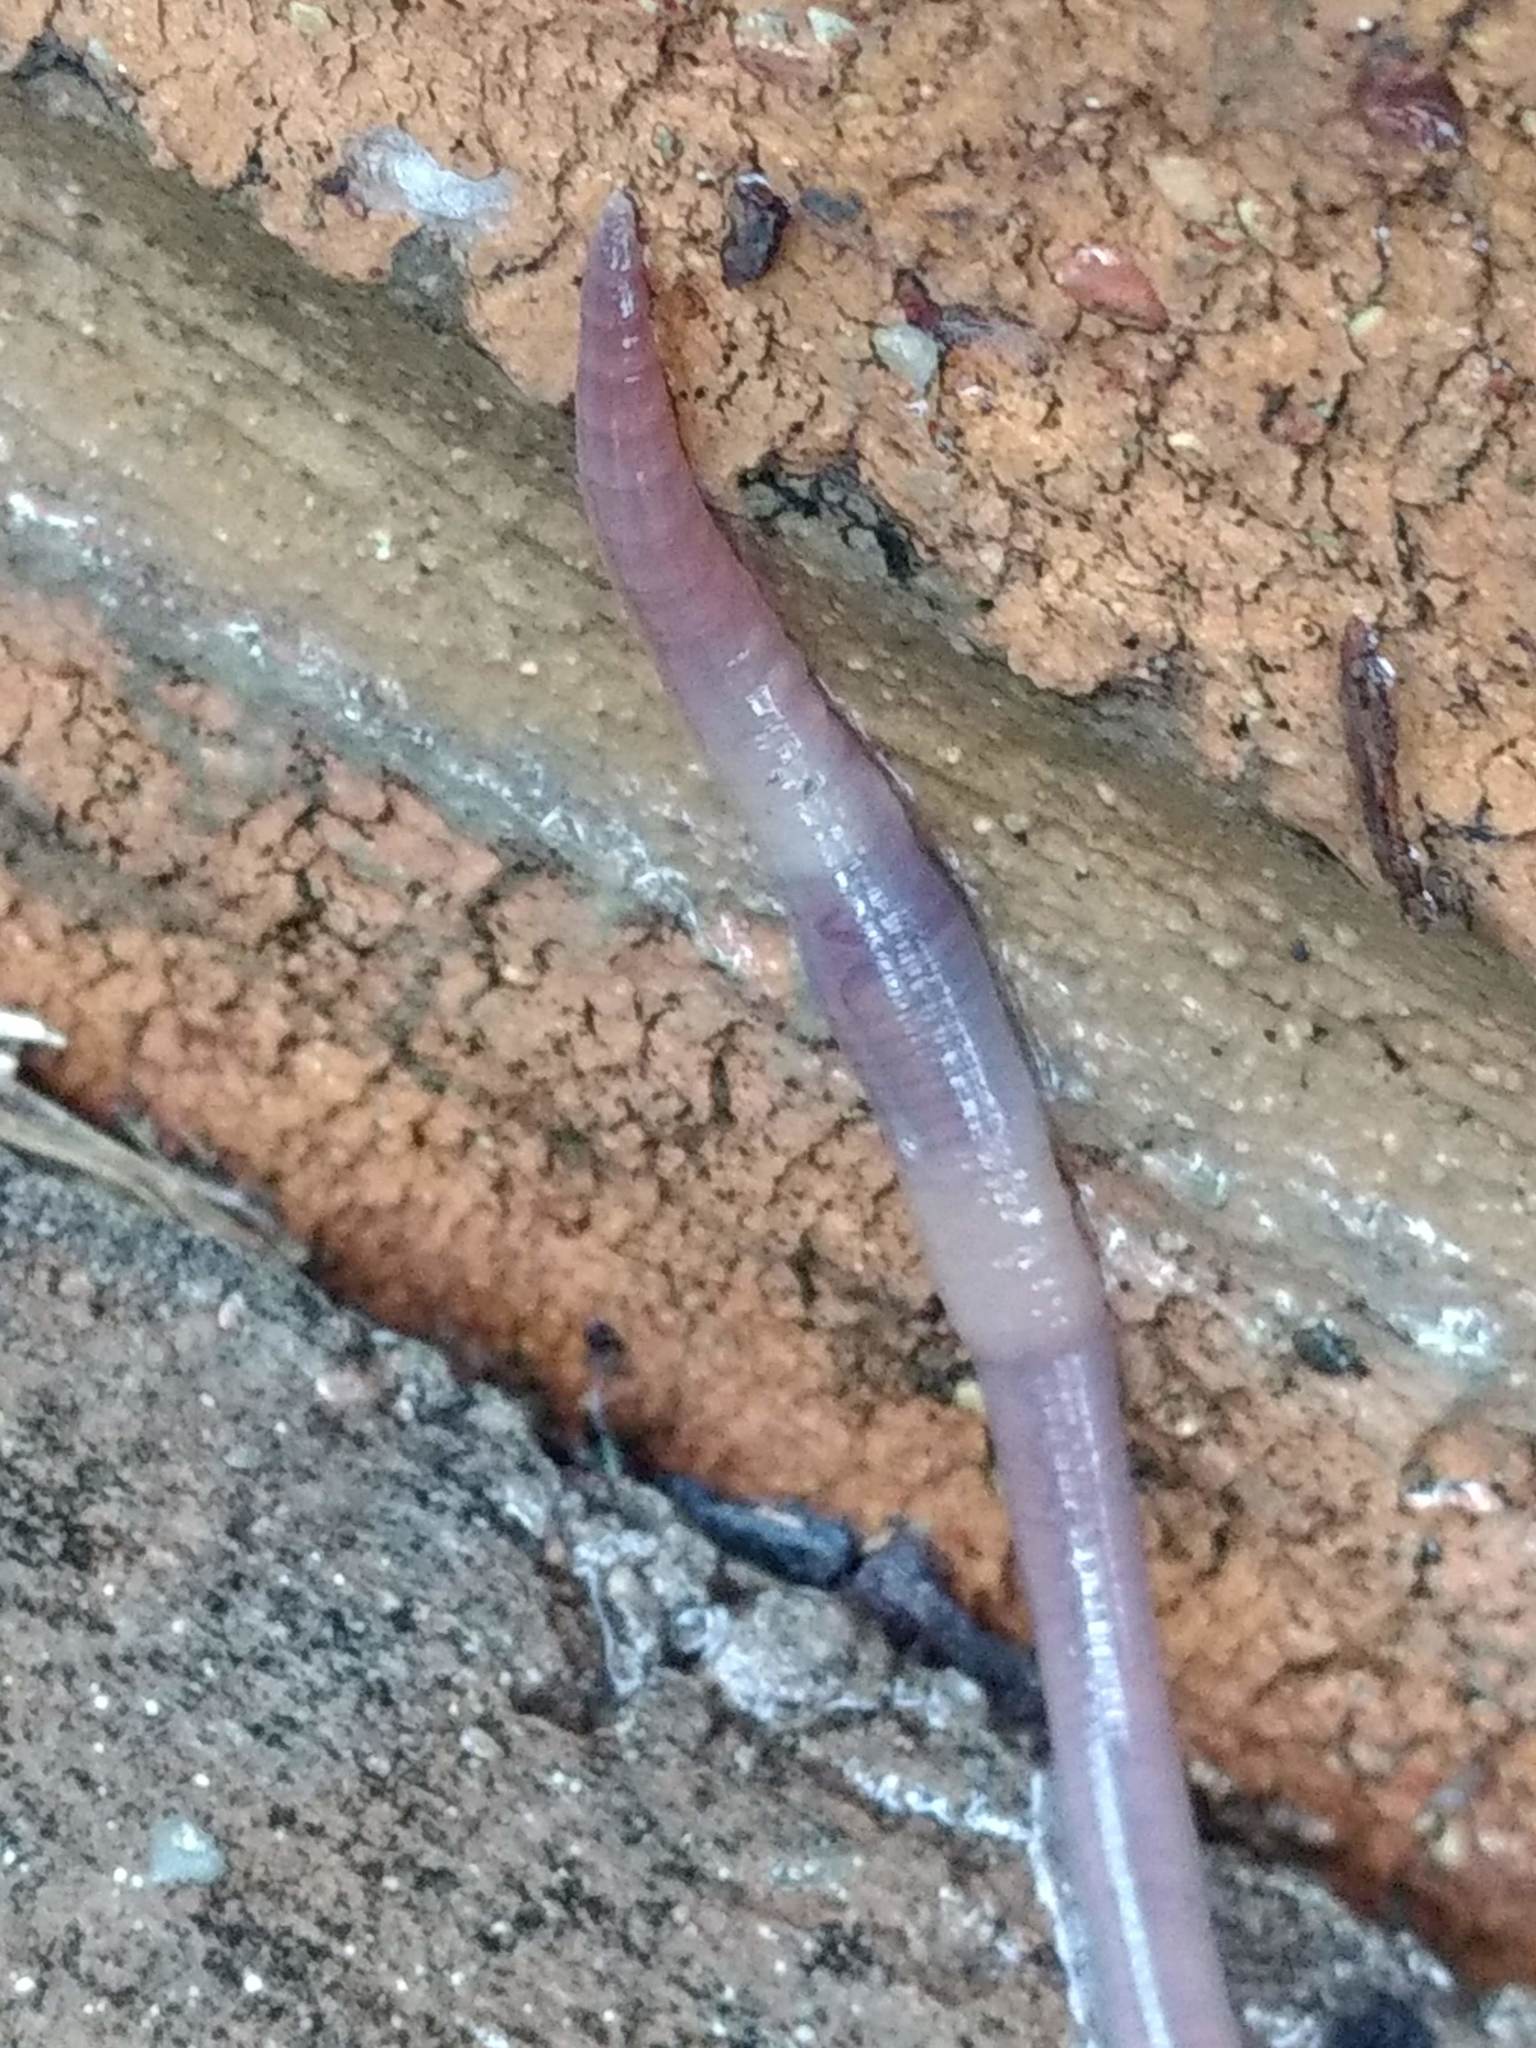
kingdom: Animalia
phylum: Annelida
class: Clitellata
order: Crassiclitellata
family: Lumbricidae
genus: Lumbricus
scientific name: Lumbricus terrestris
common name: Common earthworm
